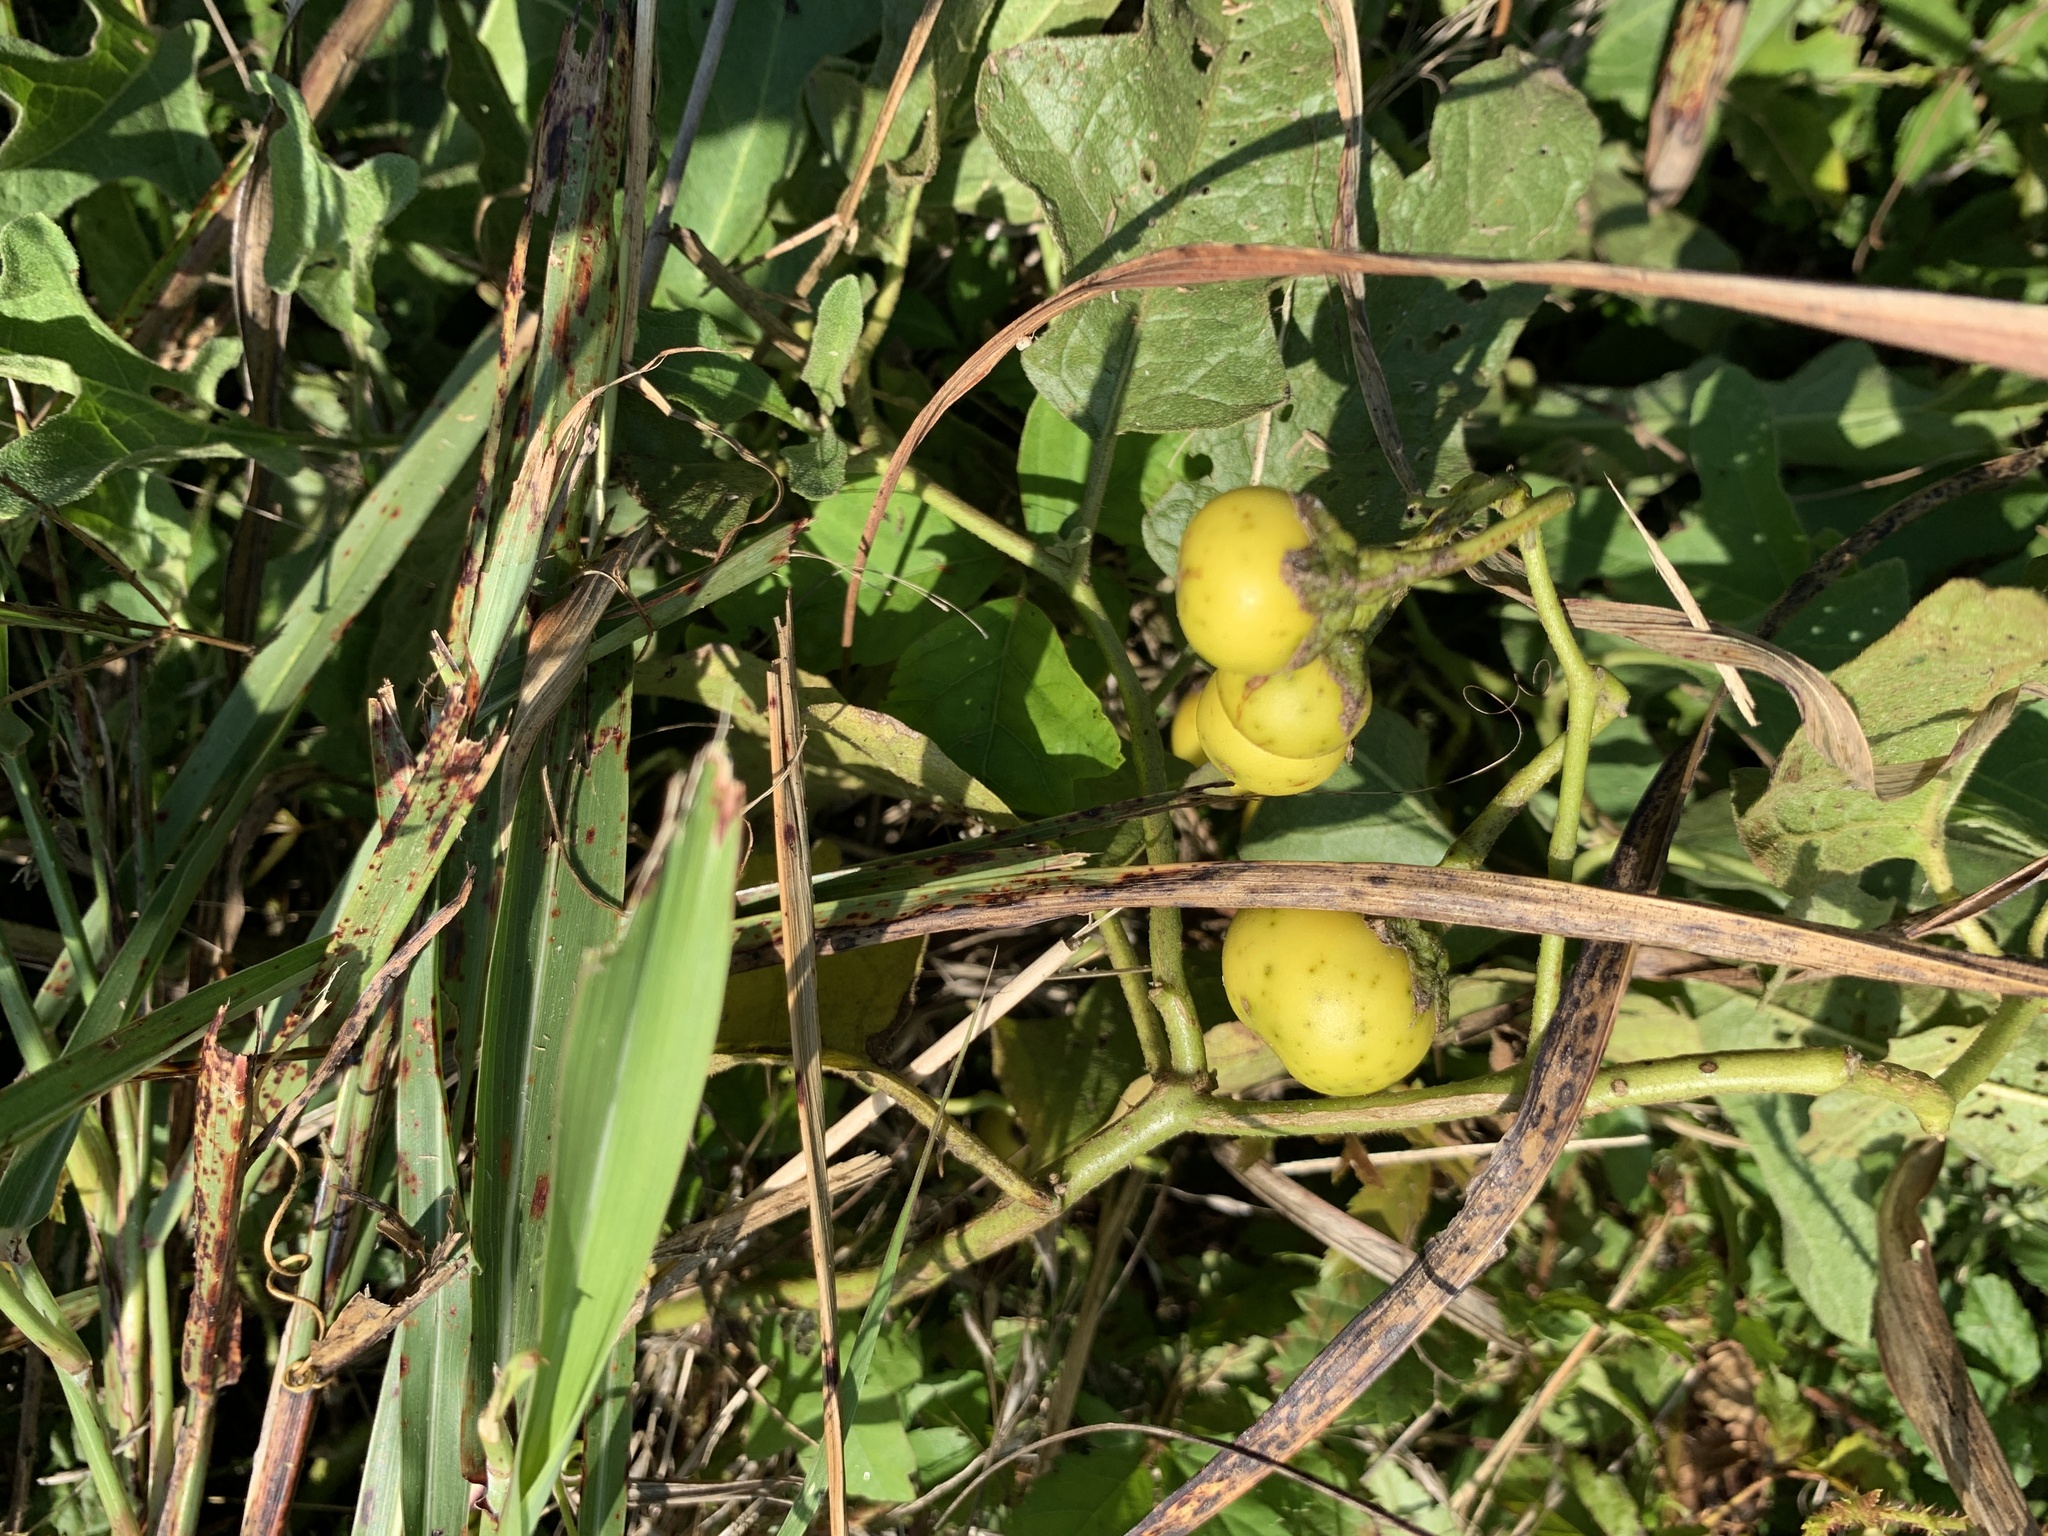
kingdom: Plantae
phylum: Tracheophyta
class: Magnoliopsida
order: Solanales
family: Solanaceae
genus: Solanum
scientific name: Solanum dimidiatum
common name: Carolina horse-nettle
